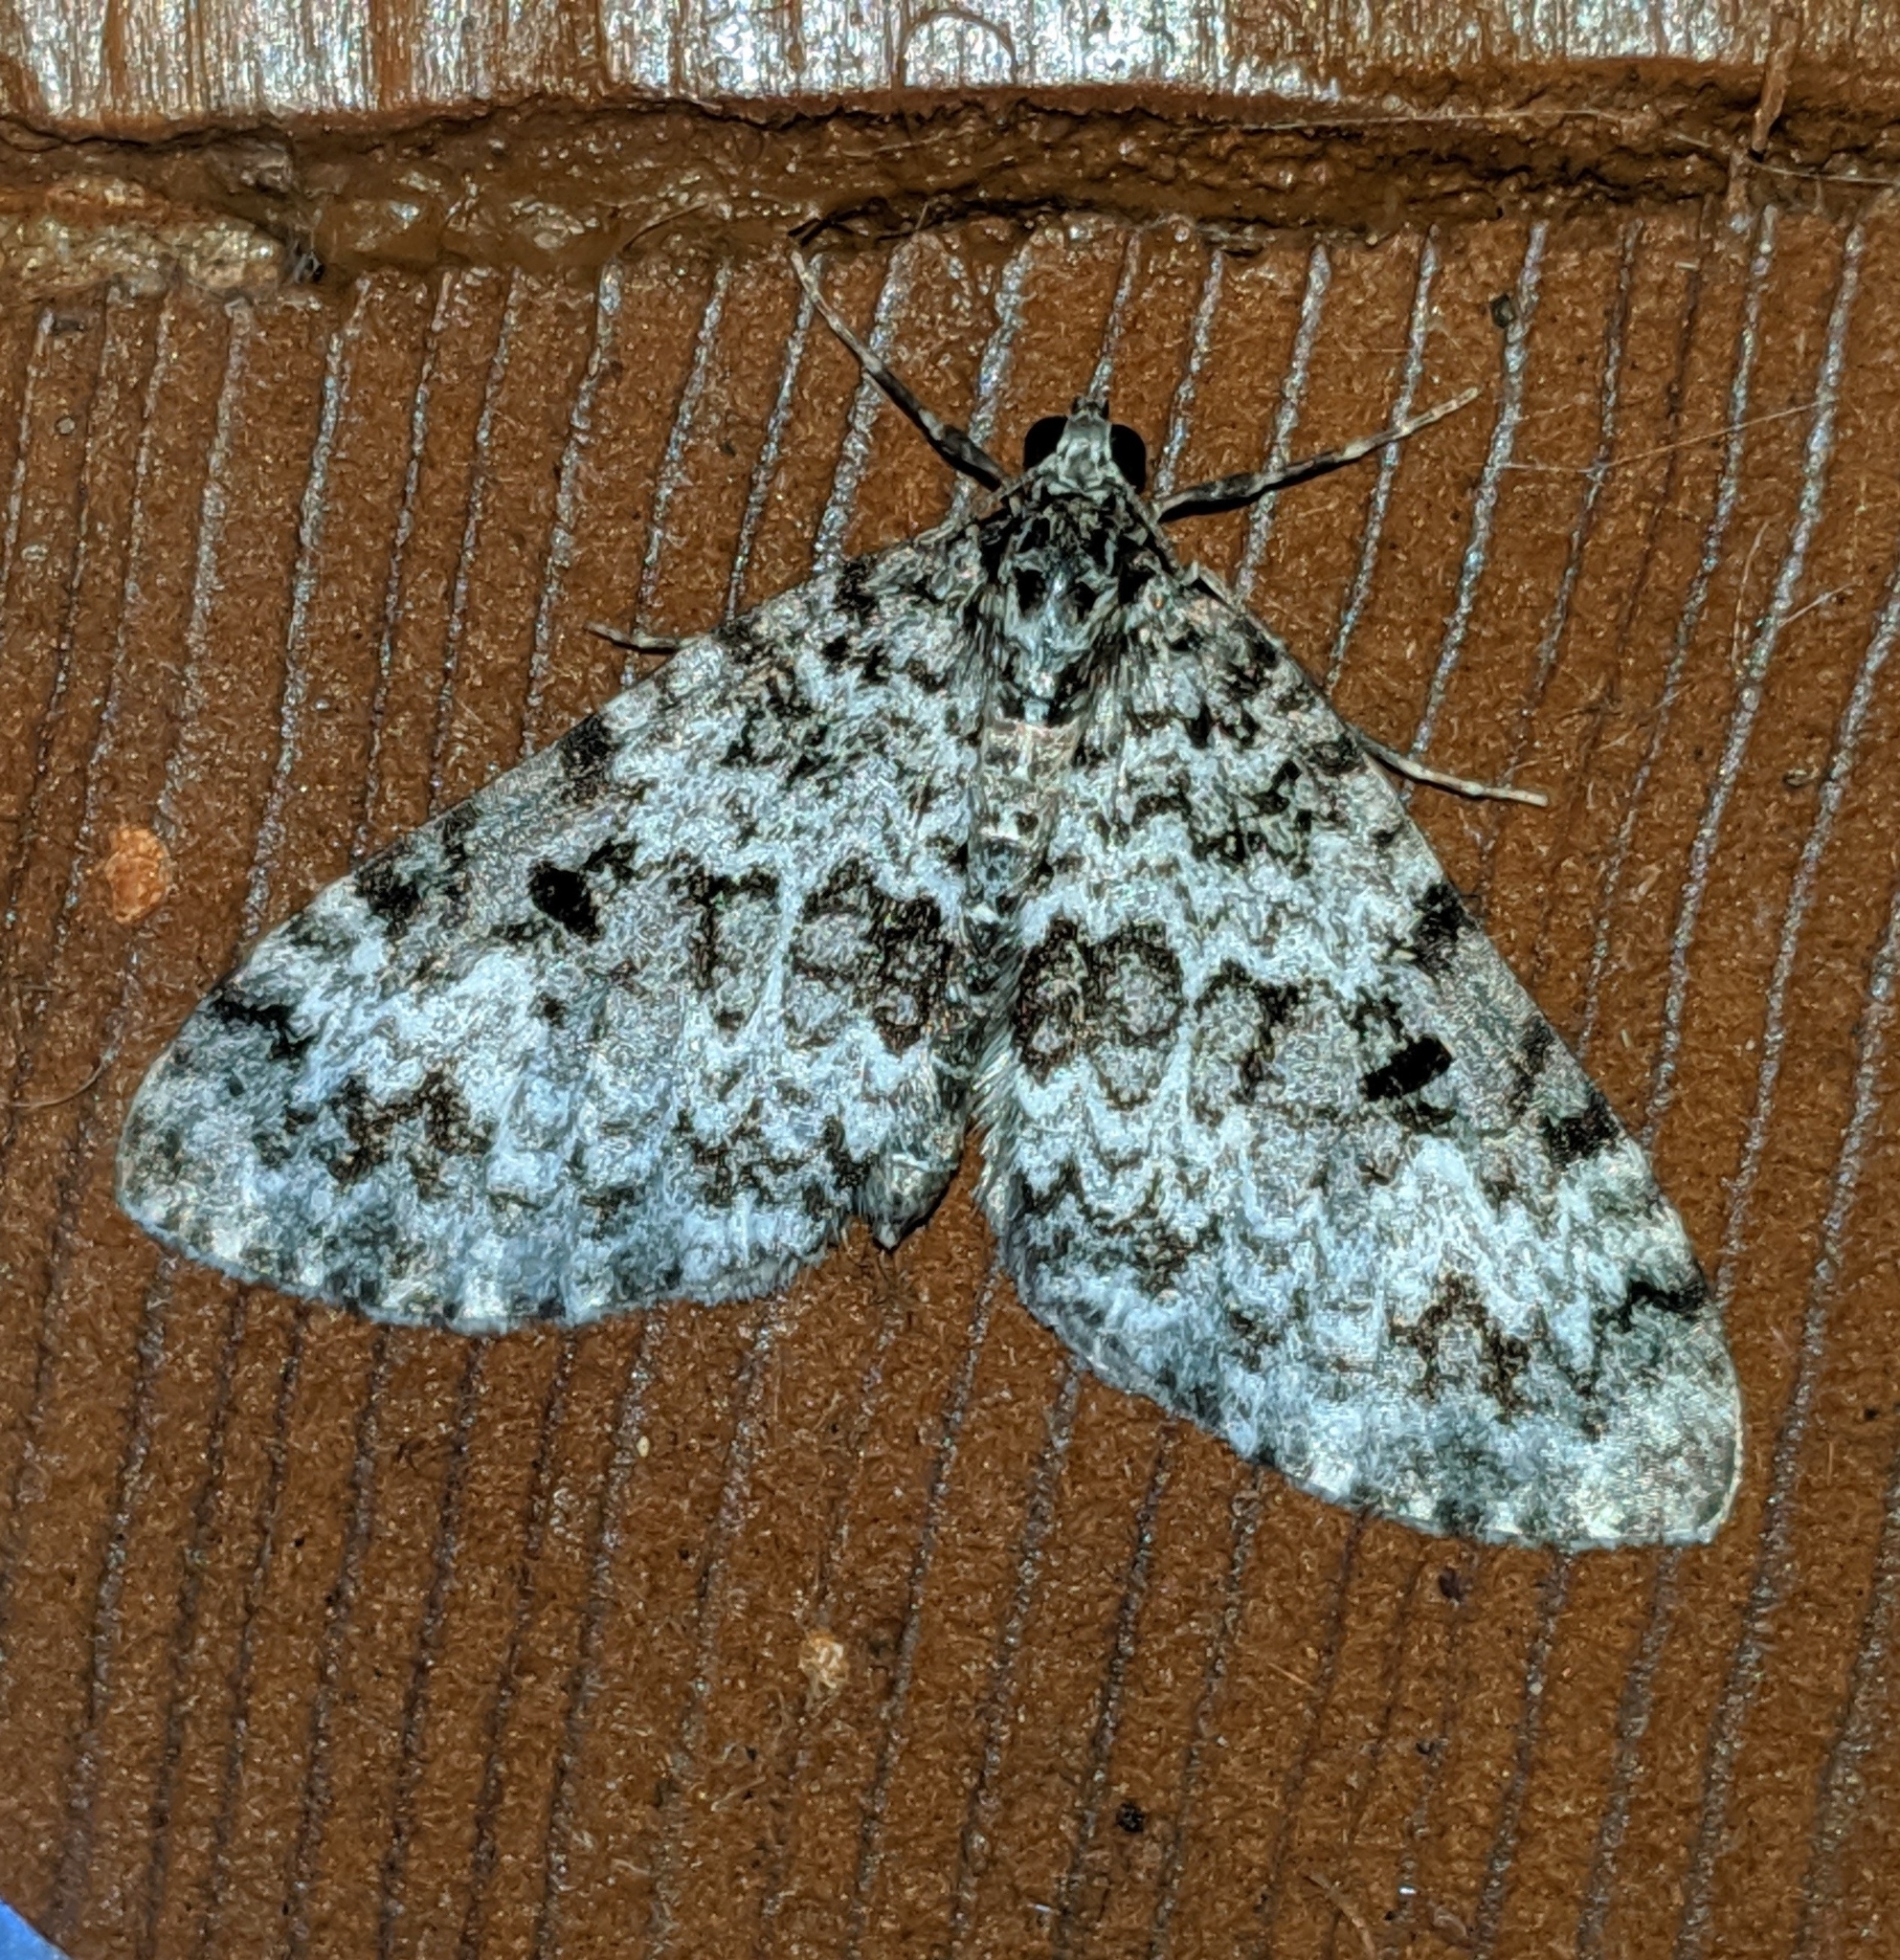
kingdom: Animalia
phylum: Arthropoda
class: Insecta
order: Lepidoptera
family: Geometridae
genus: Spargania
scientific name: Spargania magnoliata
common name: Double-banded carpet
